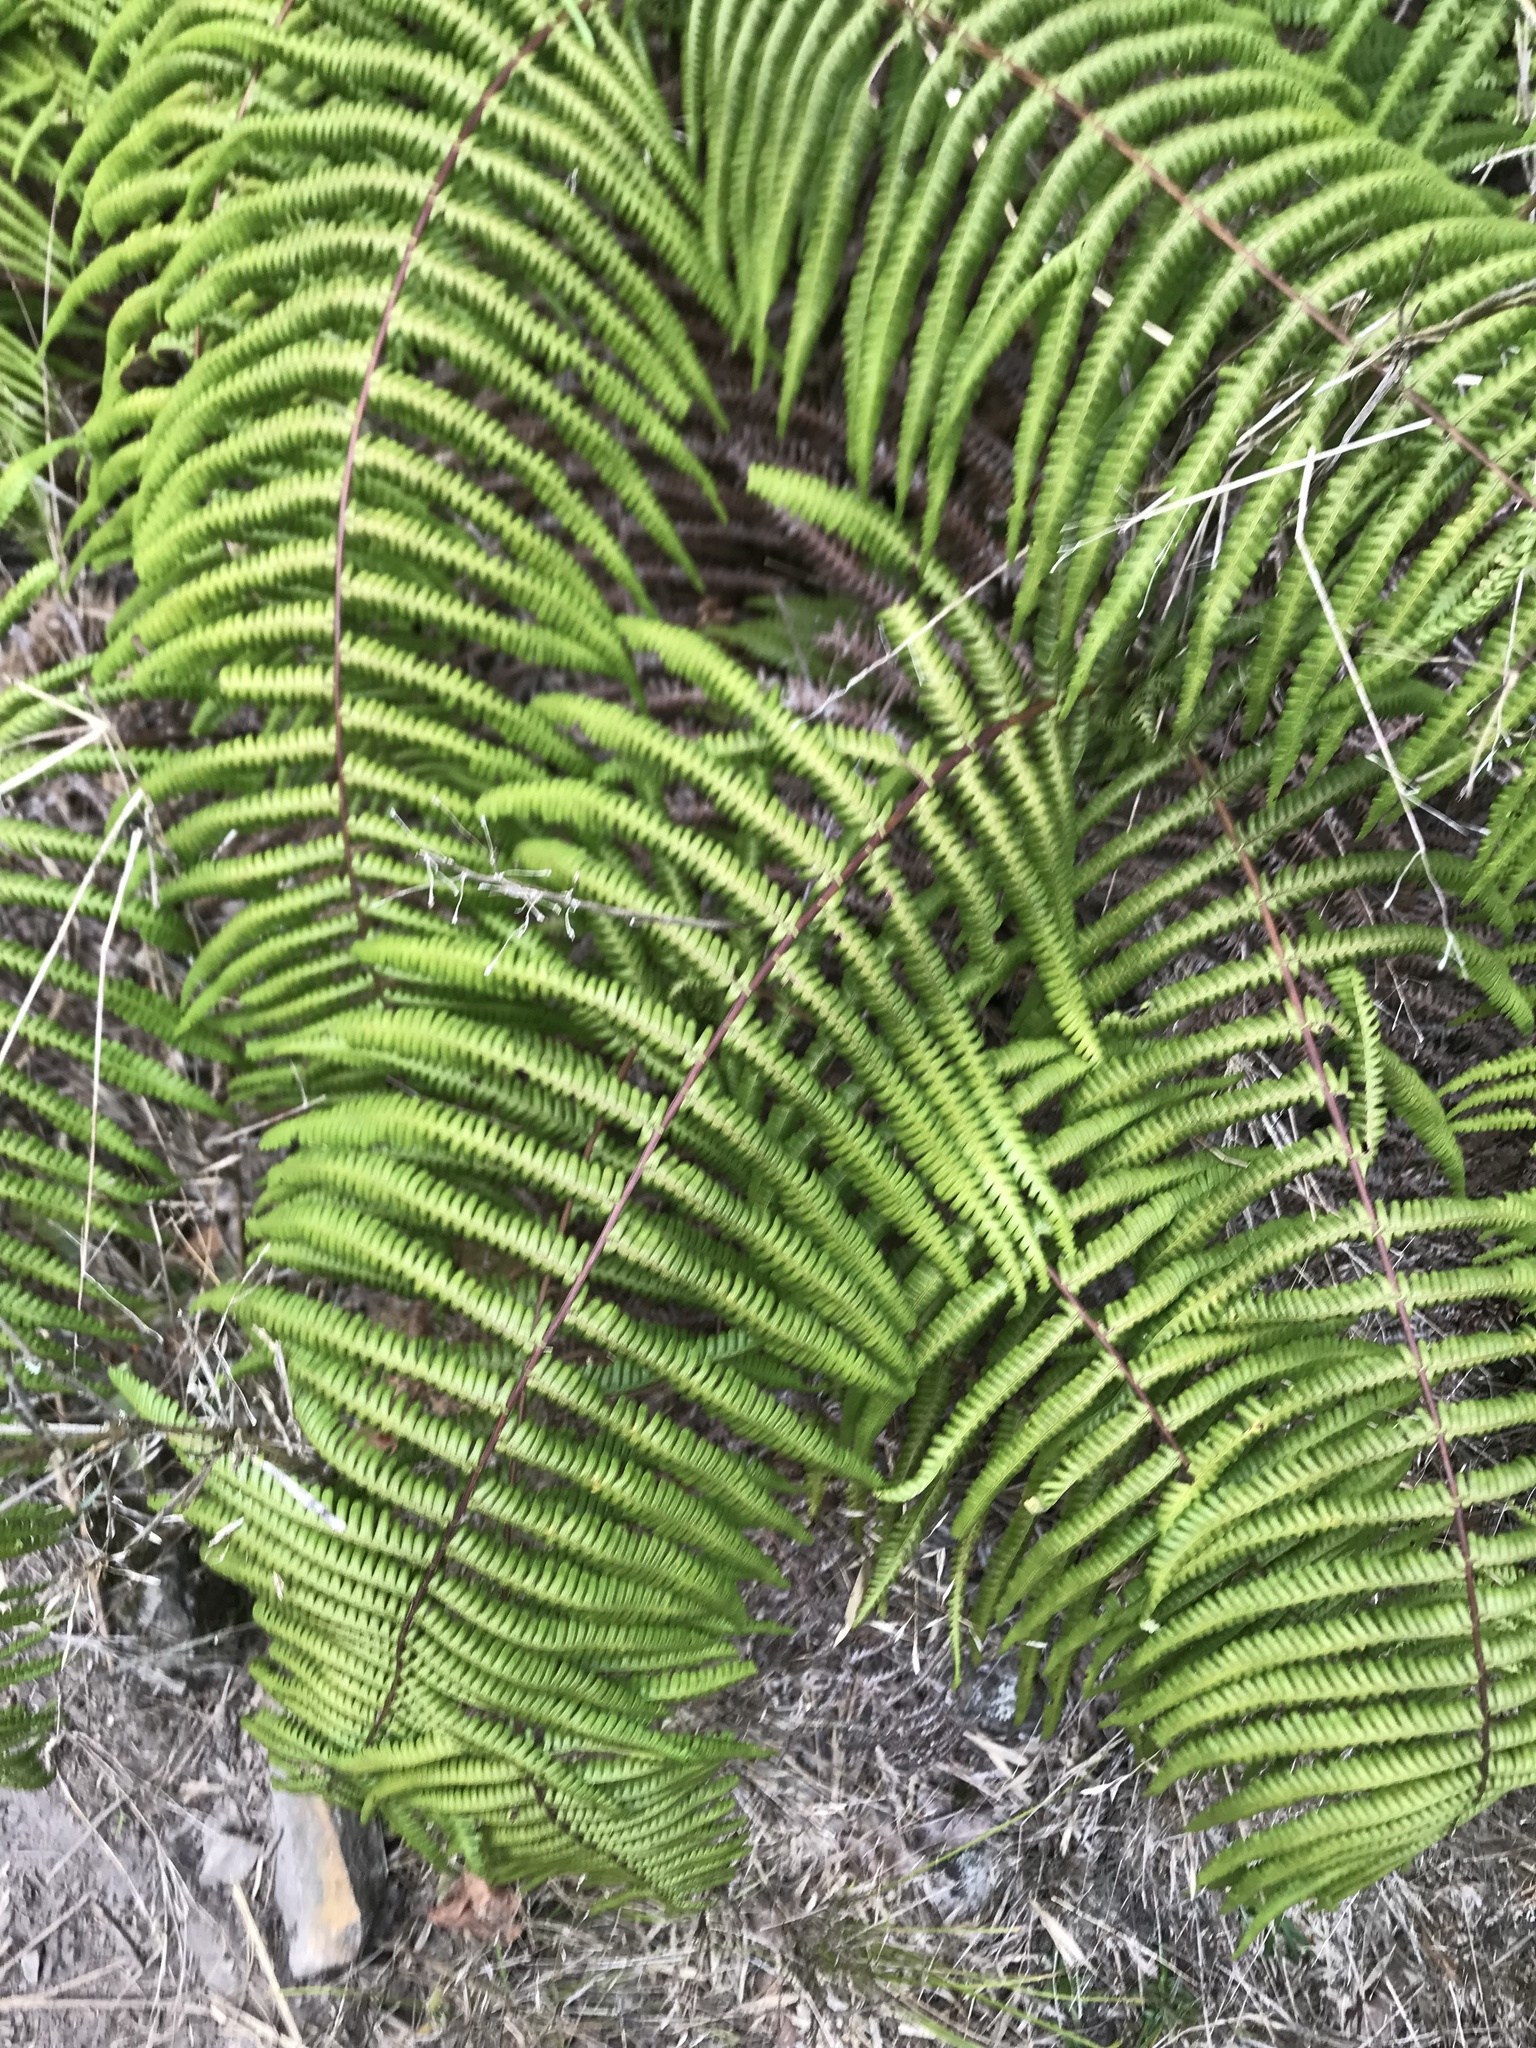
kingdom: Plantae
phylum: Tracheophyta
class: Polypodiopsida
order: Gleicheniales
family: Gleicheniaceae
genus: Diplopterygium
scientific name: Diplopterygium glaucum
